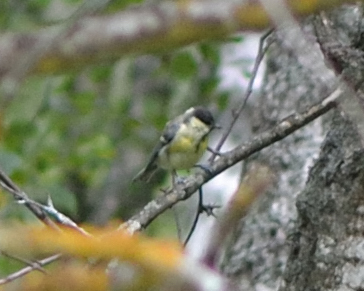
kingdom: Animalia
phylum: Chordata
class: Aves
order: Passeriformes
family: Paridae
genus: Parus
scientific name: Parus major
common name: Great tit
